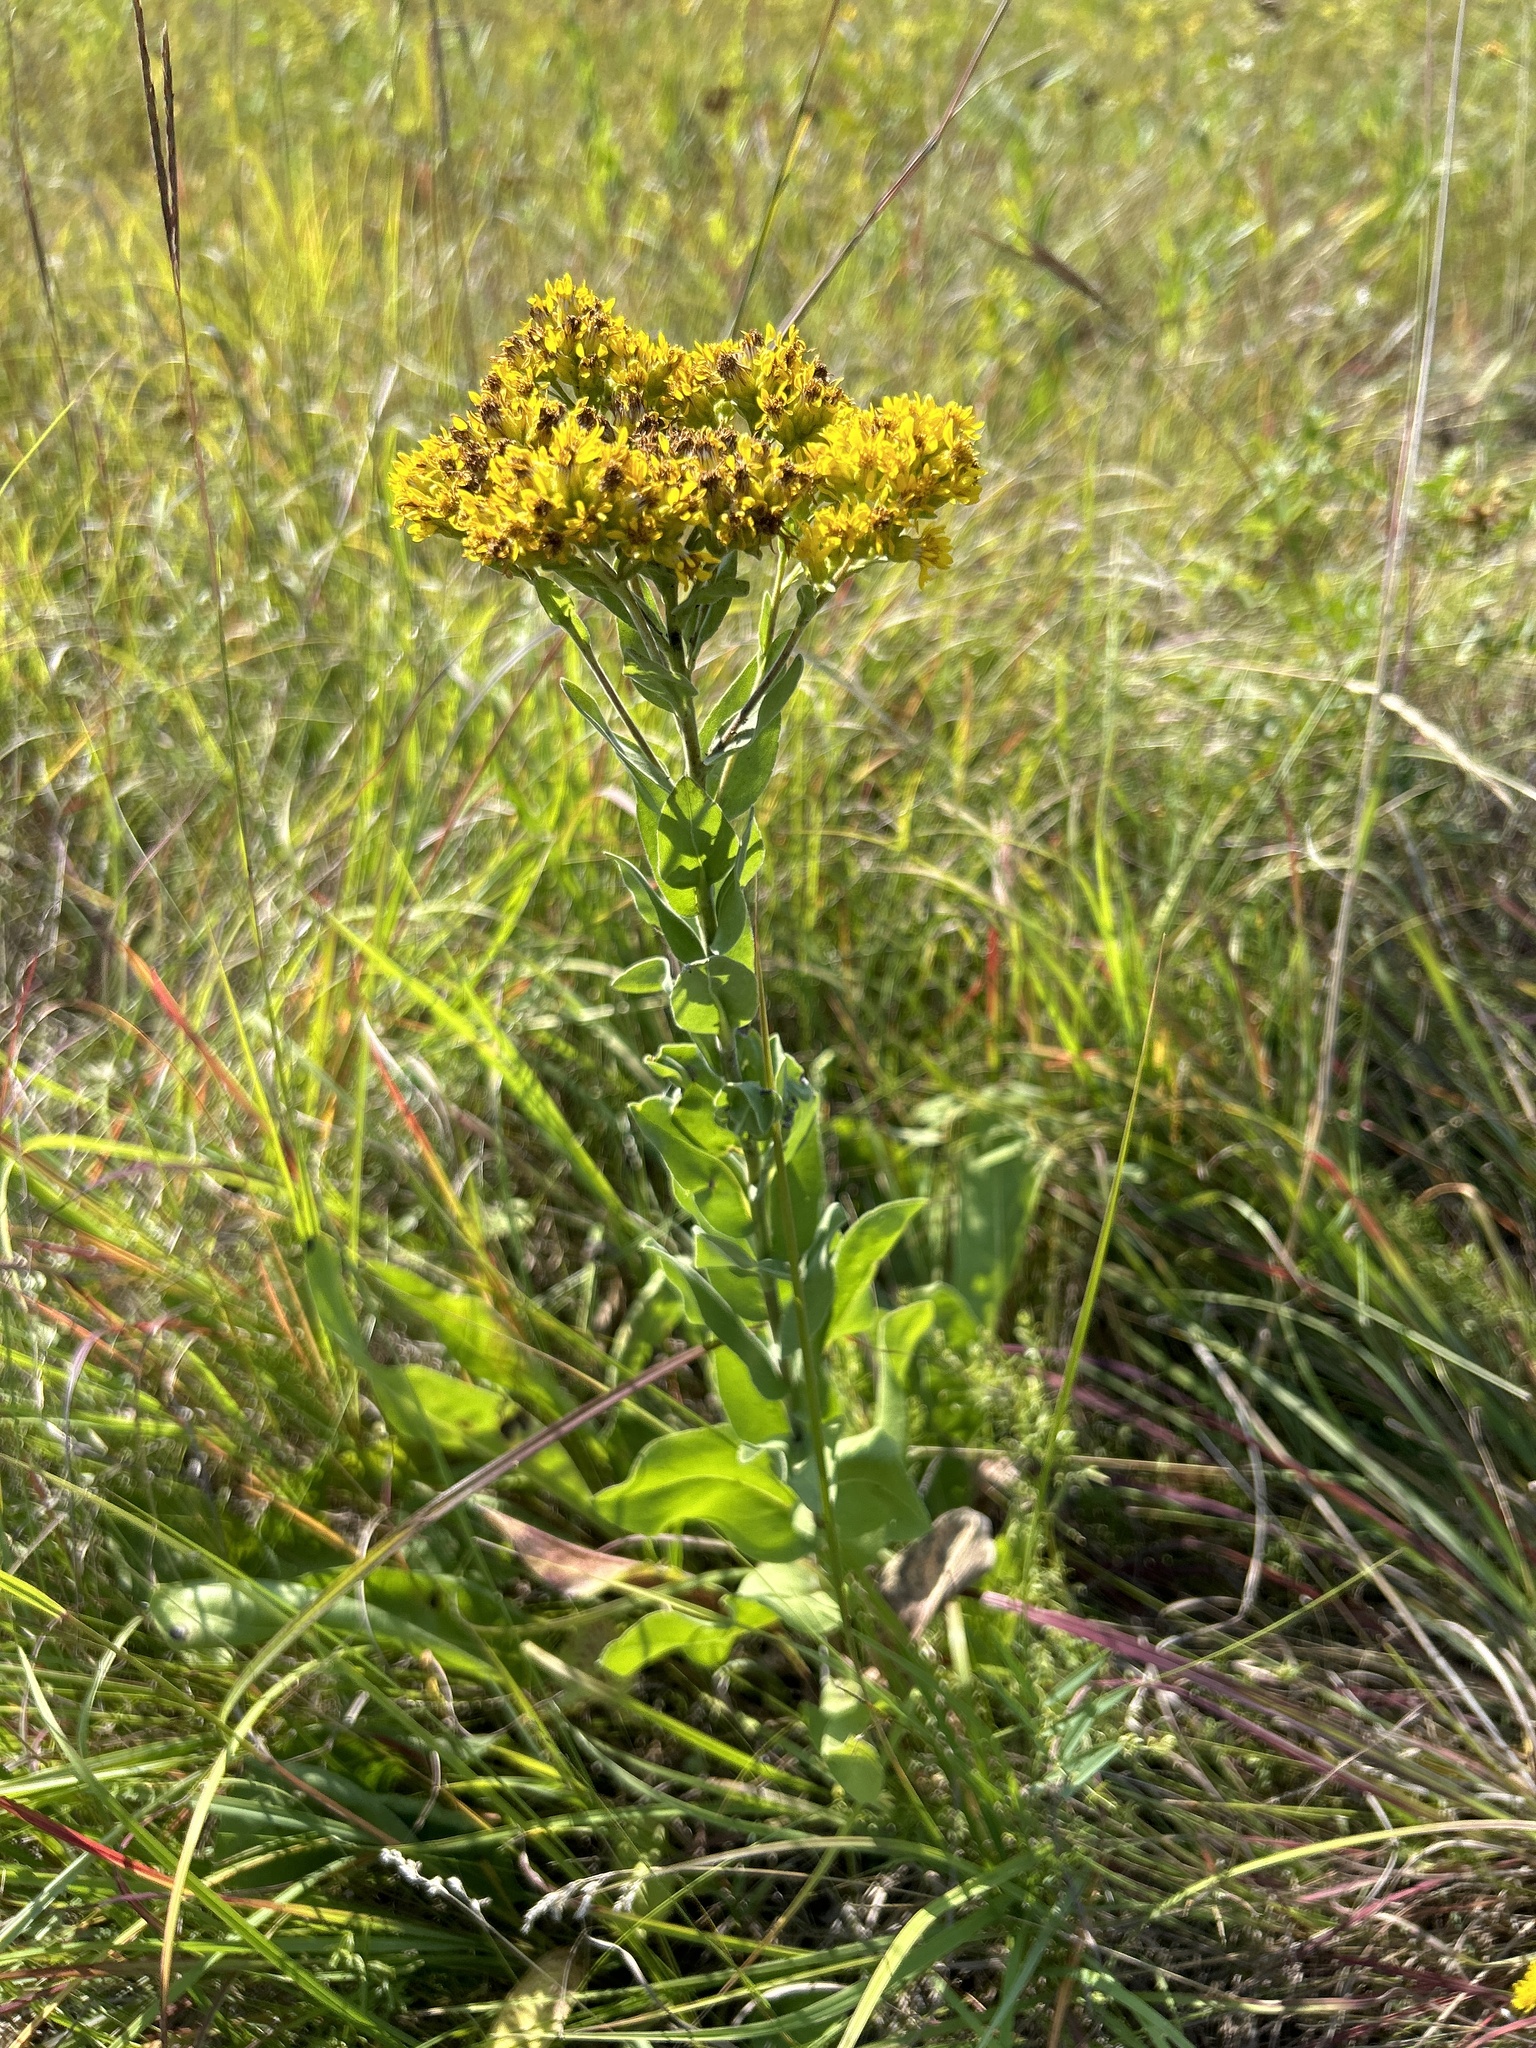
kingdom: Plantae
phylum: Tracheophyta
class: Magnoliopsida
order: Asterales
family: Asteraceae
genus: Solidago
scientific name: Solidago rigida
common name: Rigid goldenrod
